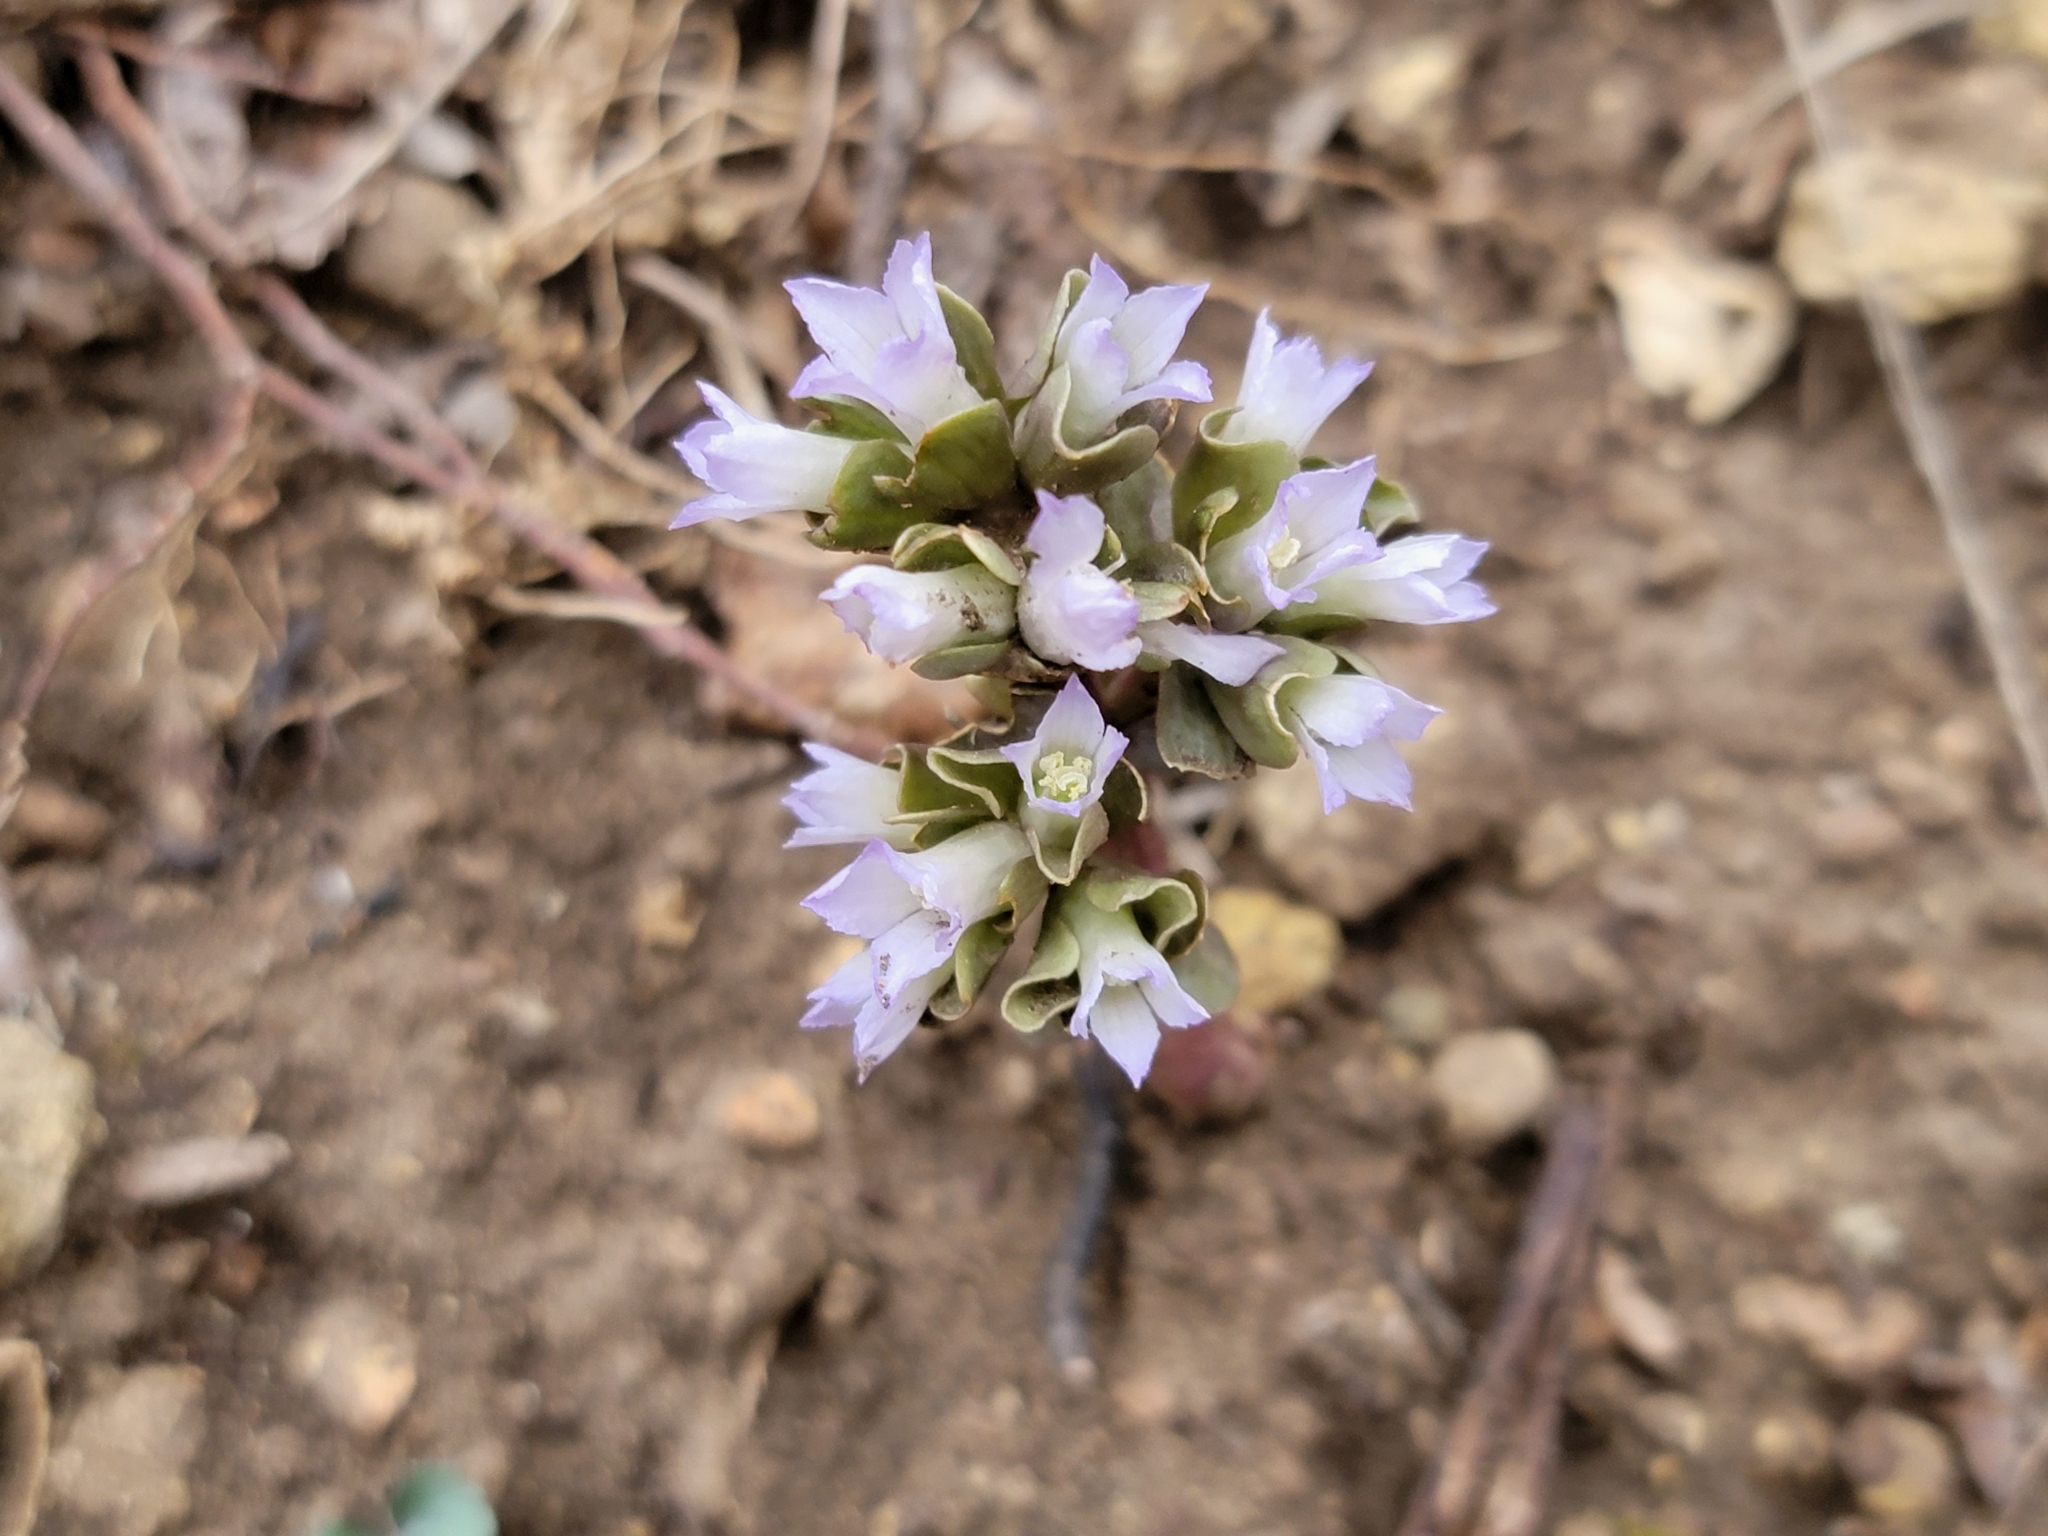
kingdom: Plantae
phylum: Tracheophyta
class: Magnoliopsida
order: Gentianales
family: Gentianaceae
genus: Obolaria
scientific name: Obolaria virginica
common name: Pennywort
